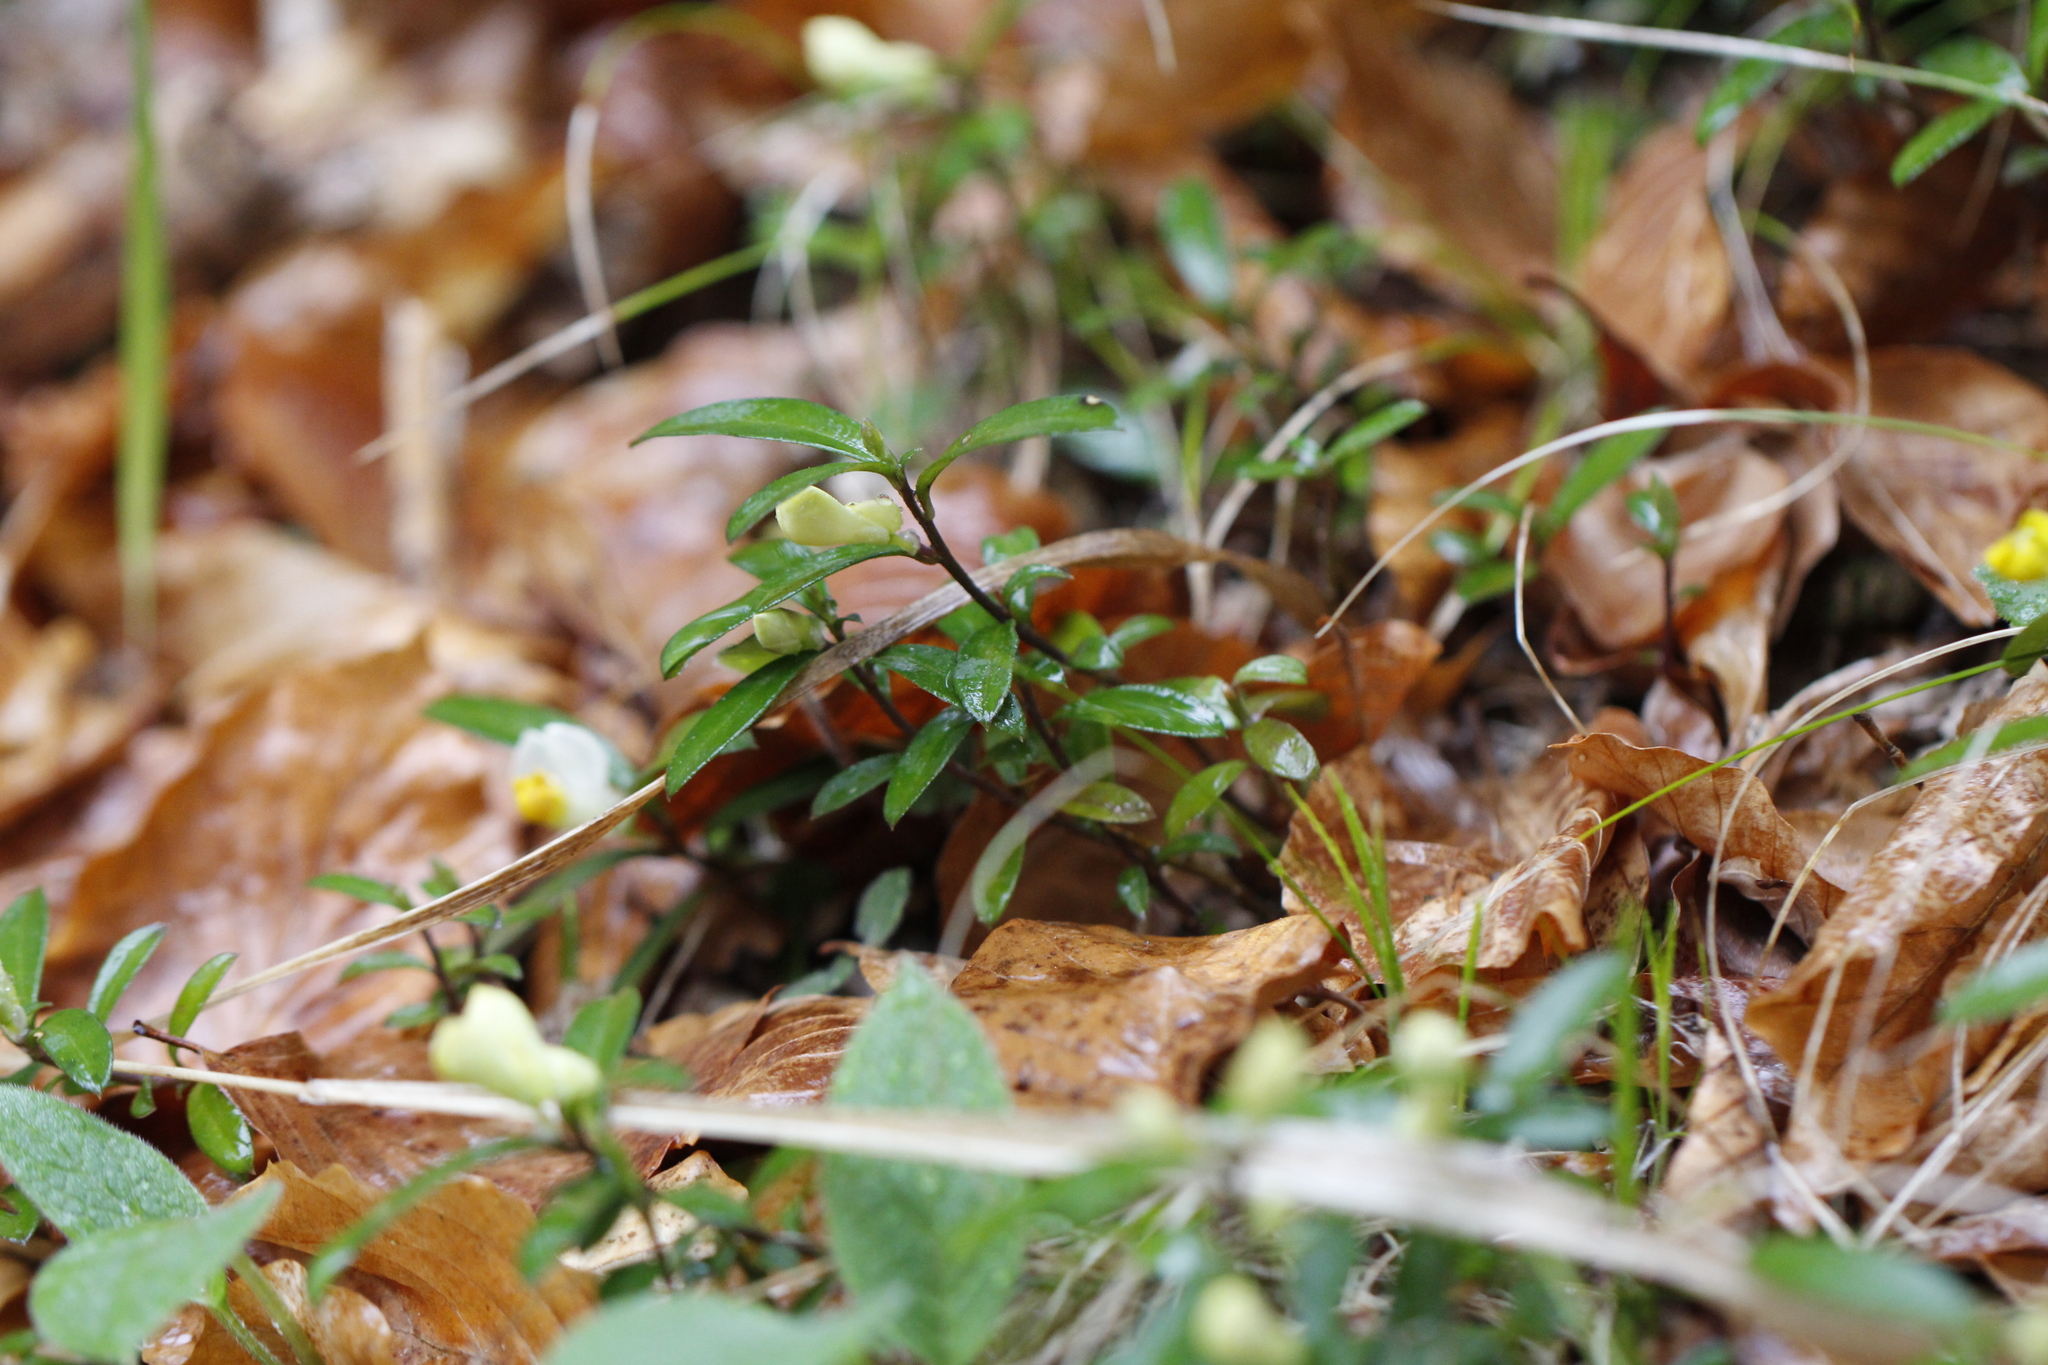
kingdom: Plantae
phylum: Tracheophyta
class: Magnoliopsida
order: Fabales
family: Polygalaceae
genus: Polygaloides
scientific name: Polygaloides chamaebuxus
